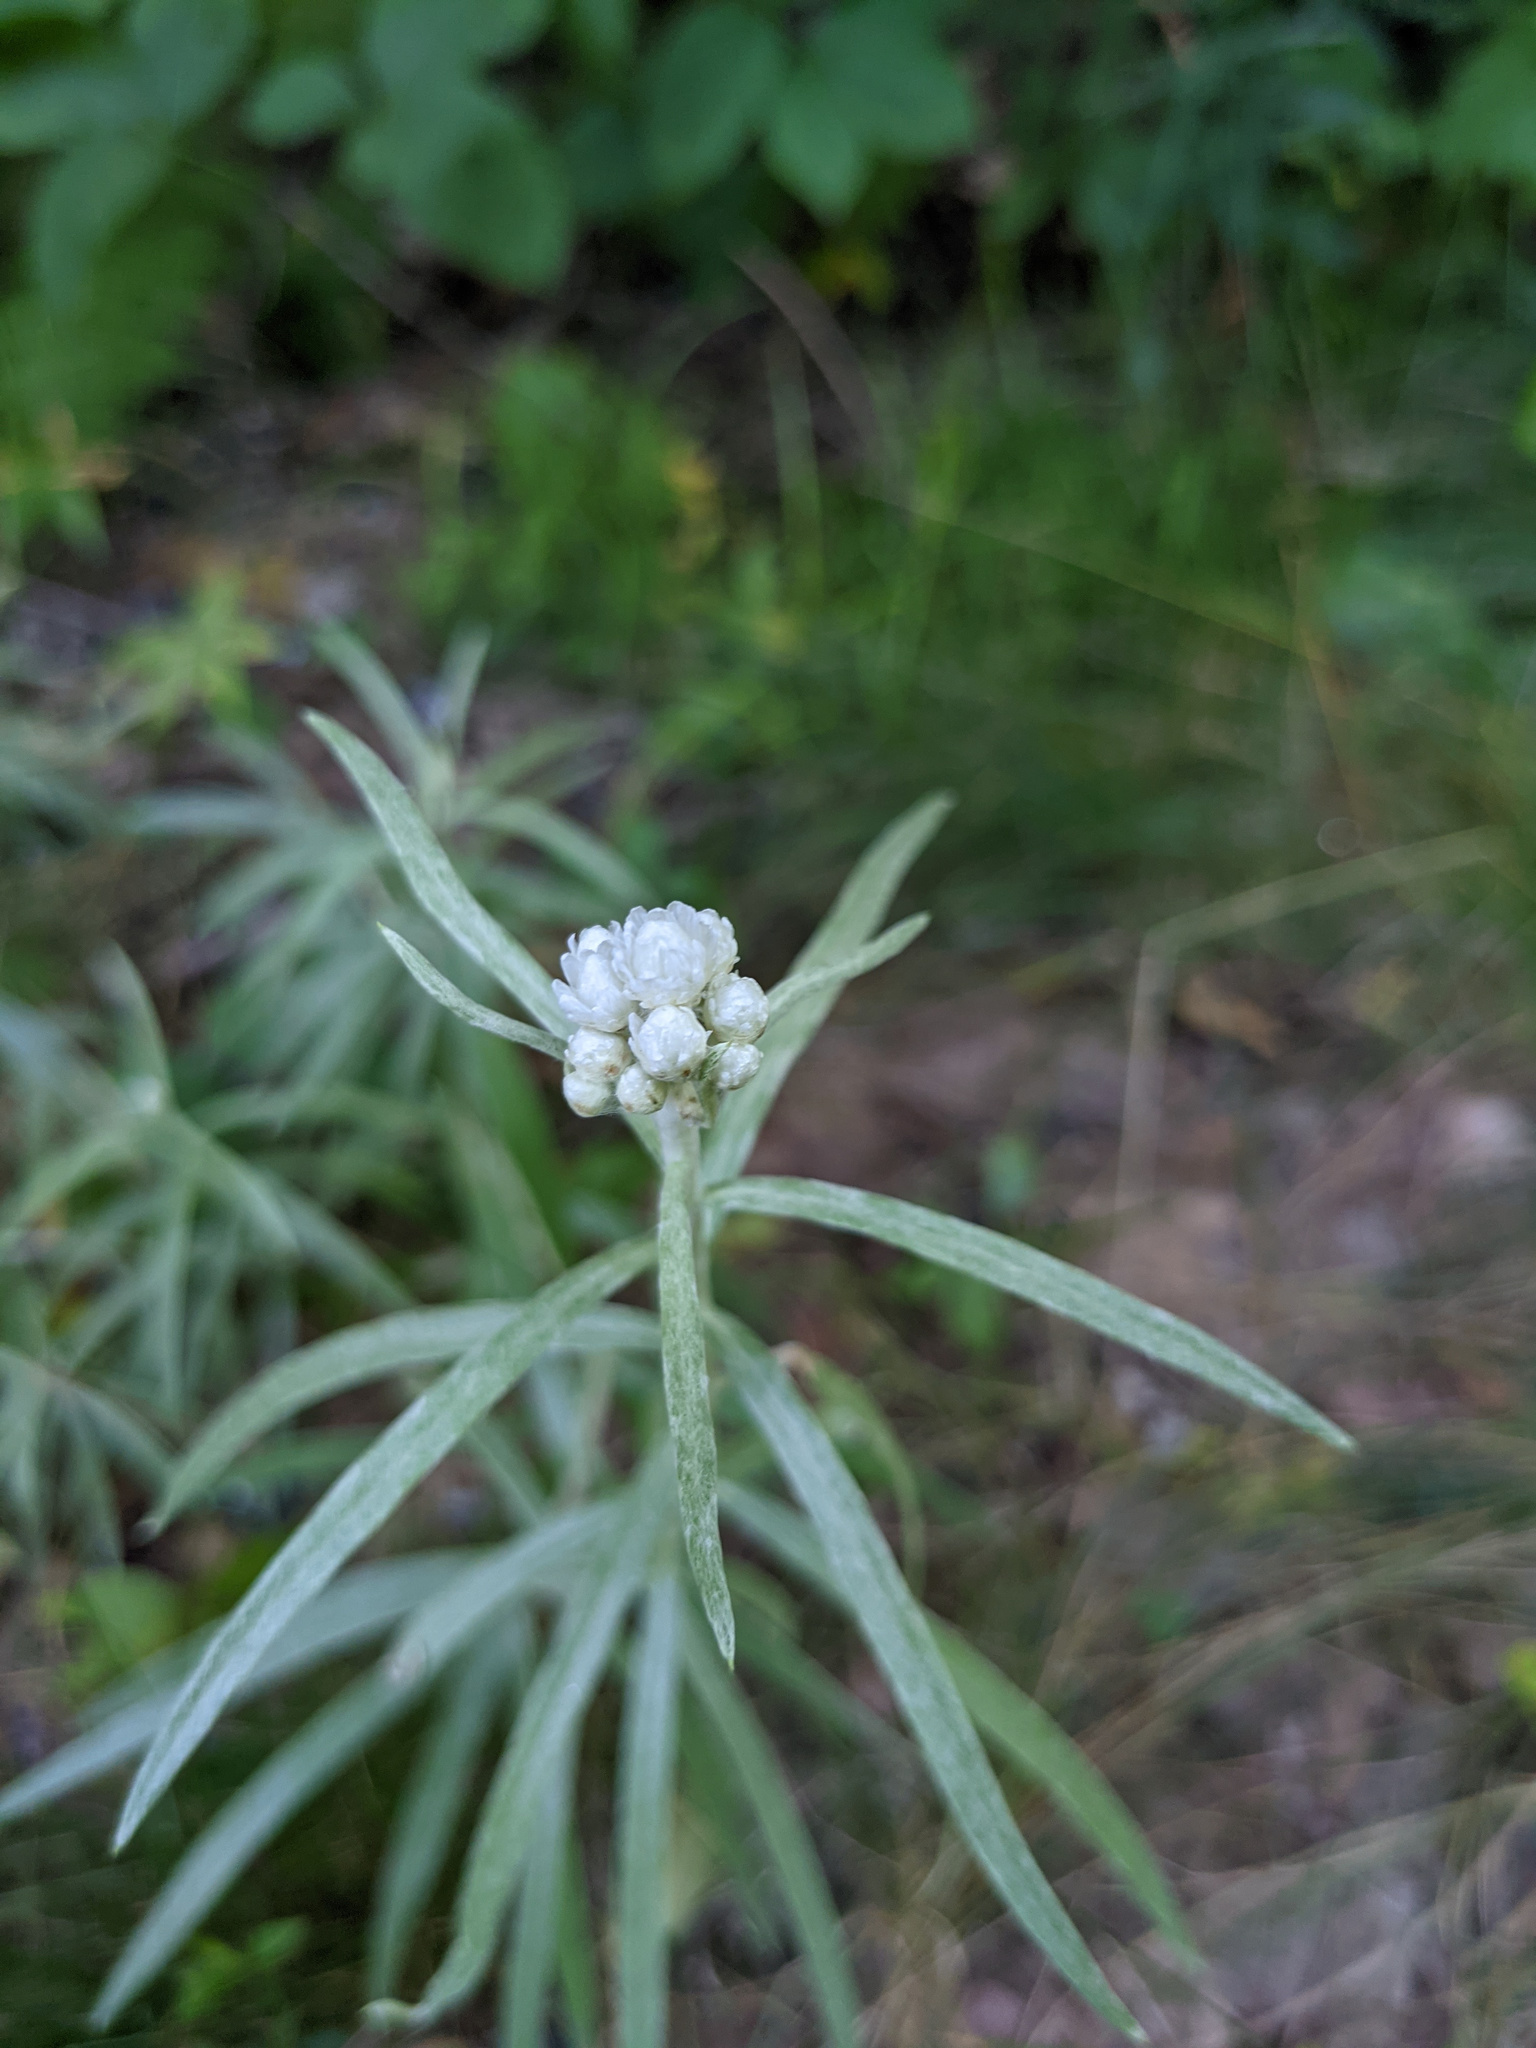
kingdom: Plantae
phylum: Tracheophyta
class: Magnoliopsida
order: Asterales
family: Asteraceae
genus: Anaphalis
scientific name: Anaphalis margaritacea
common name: Pearly everlasting
